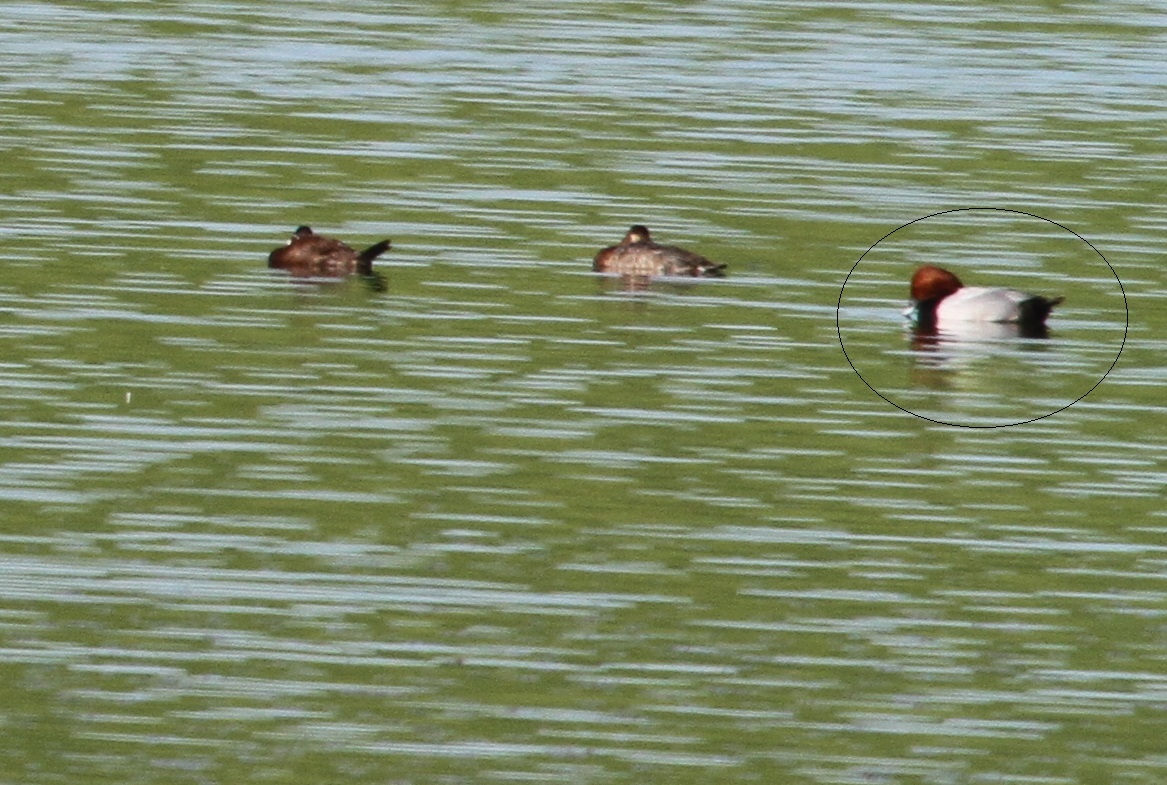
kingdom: Animalia
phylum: Chordata
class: Aves
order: Anseriformes
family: Anatidae
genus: Aythya
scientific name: Aythya ferina
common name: Common pochard
